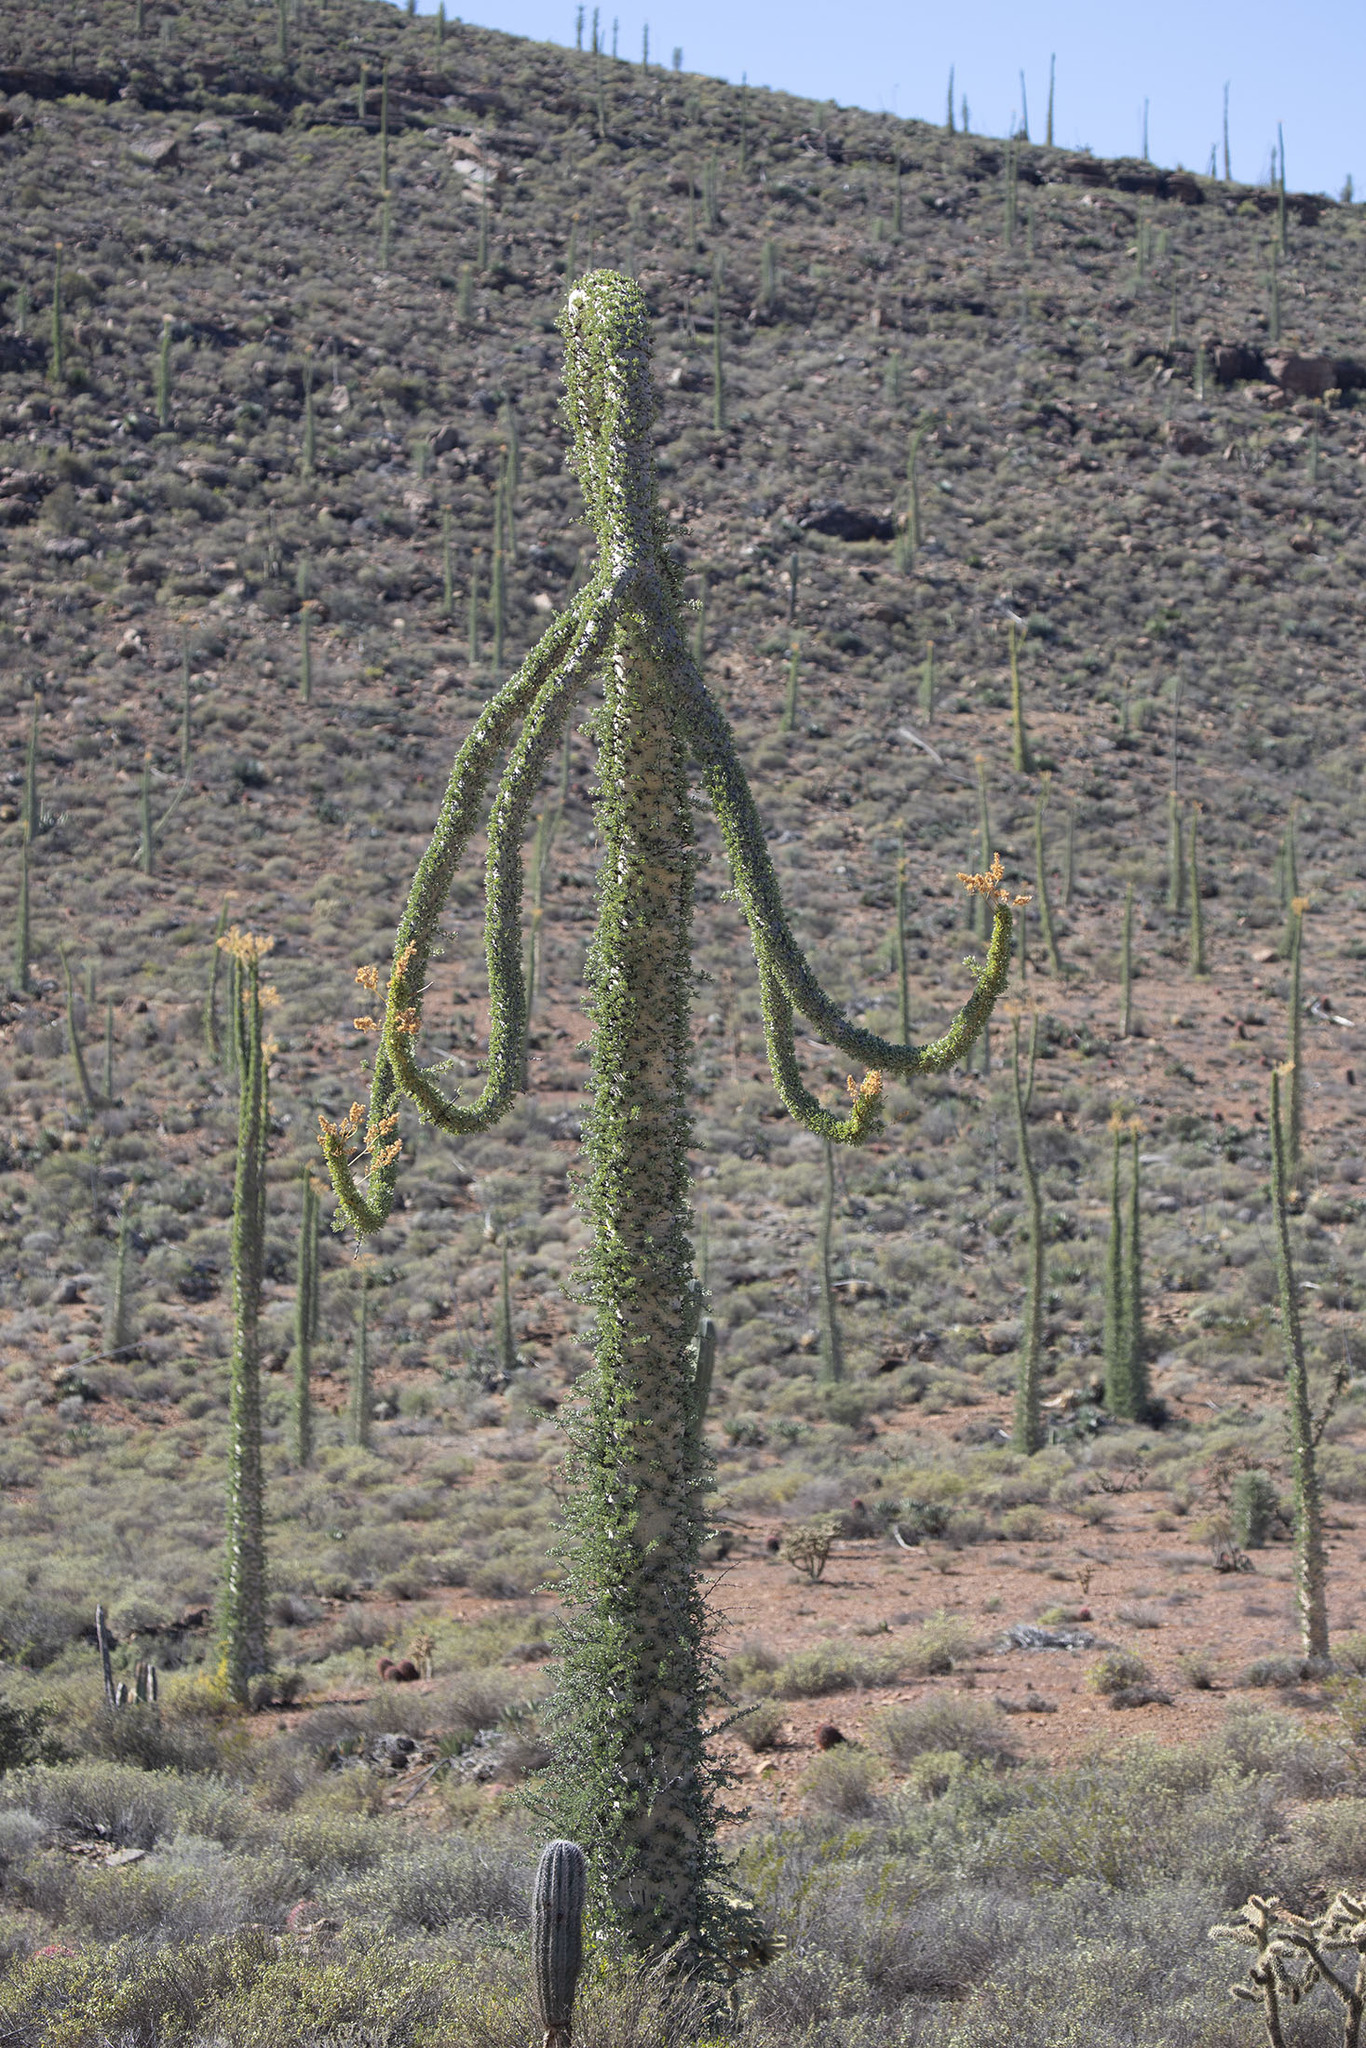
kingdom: Plantae
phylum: Tracheophyta
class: Magnoliopsida
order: Ericales
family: Fouquieriaceae
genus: Fouquieria
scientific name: Fouquieria columnaris
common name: Boojumtree
